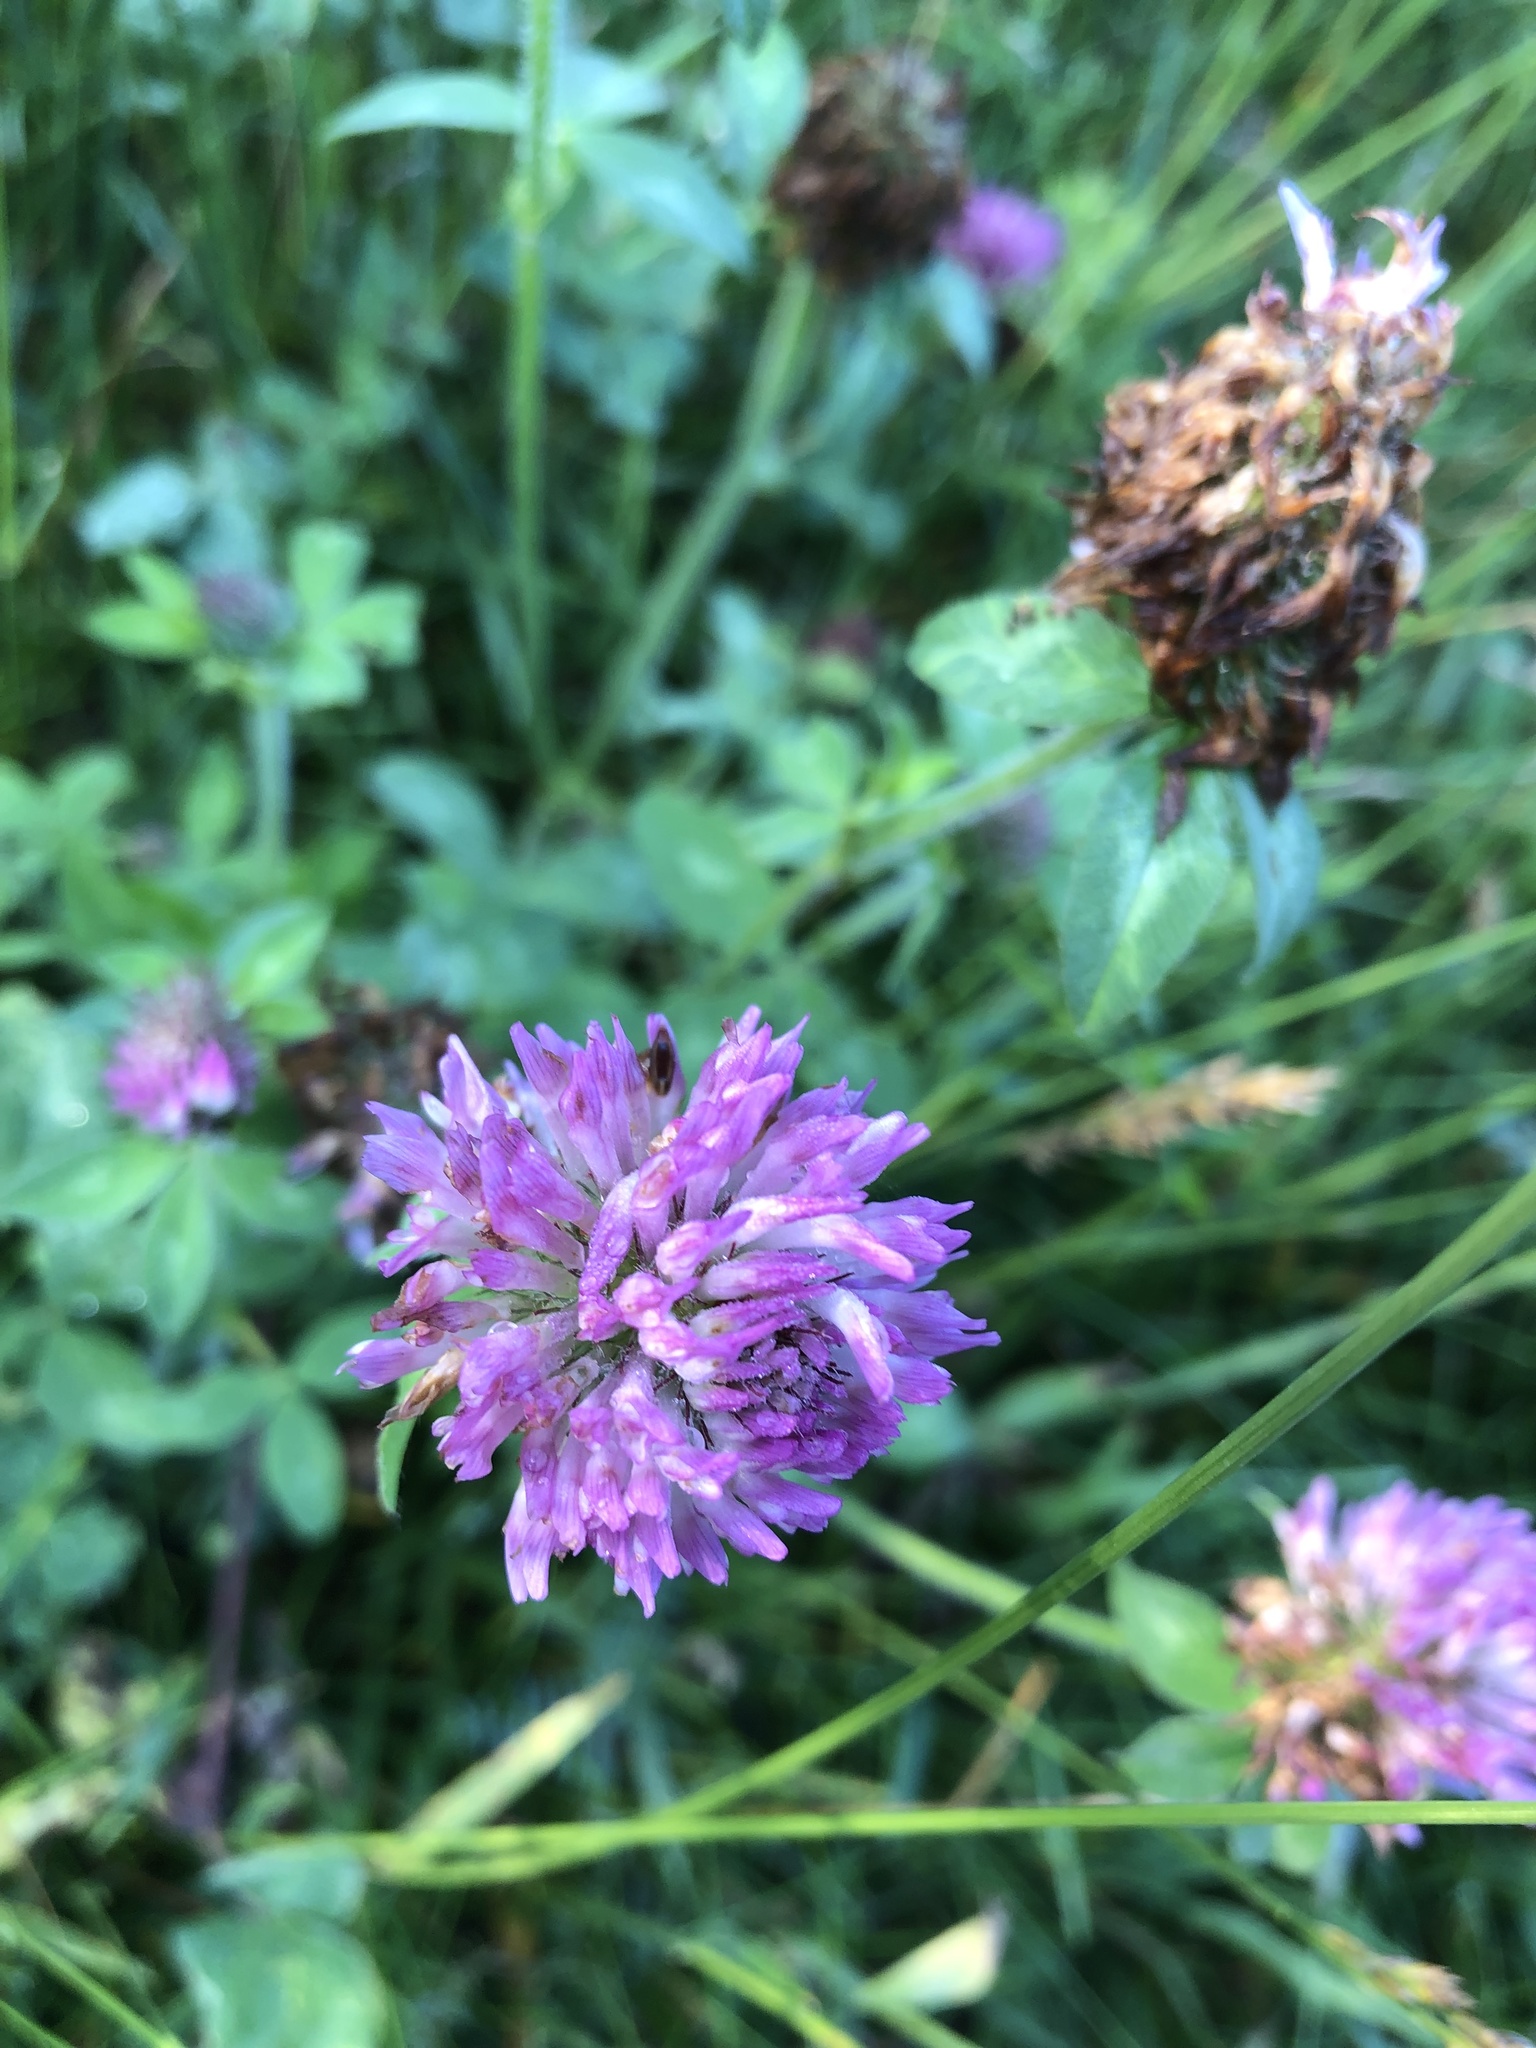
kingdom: Plantae
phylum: Tracheophyta
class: Magnoliopsida
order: Fabales
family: Fabaceae
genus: Trifolium
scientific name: Trifolium pratense
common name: Red clover
